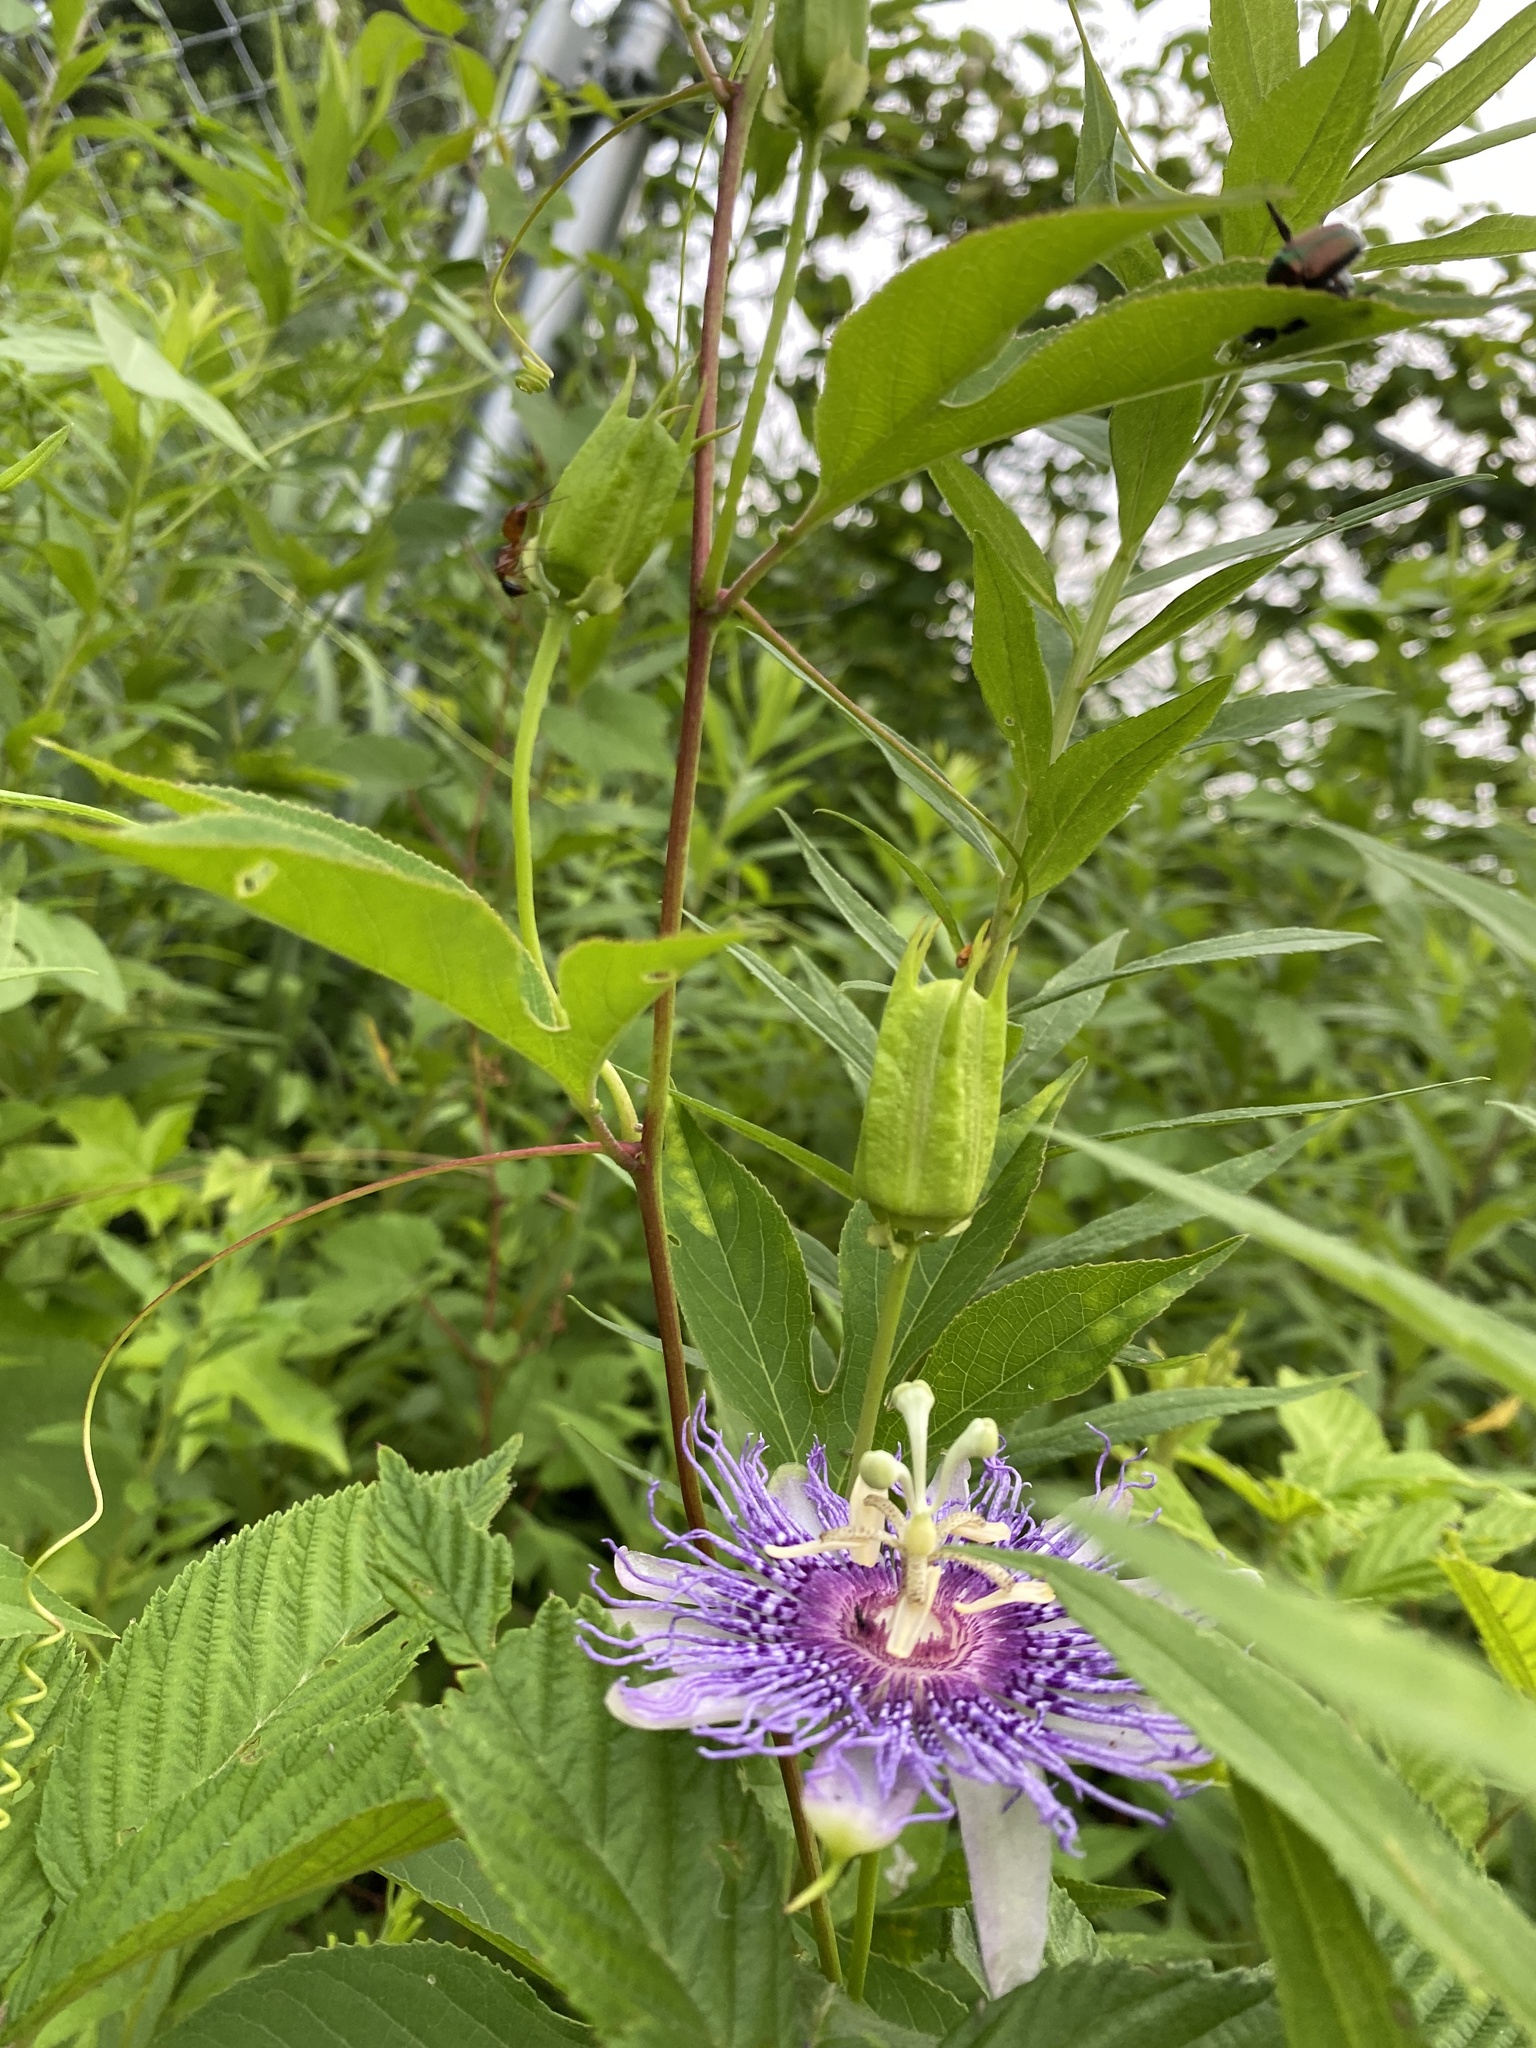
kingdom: Plantae
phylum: Tracheophyta
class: Magnoliopsida
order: Malpighiales
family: Passifloraceae
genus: Passiflora
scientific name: Passiflora incarnata
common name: Apricot-vine
